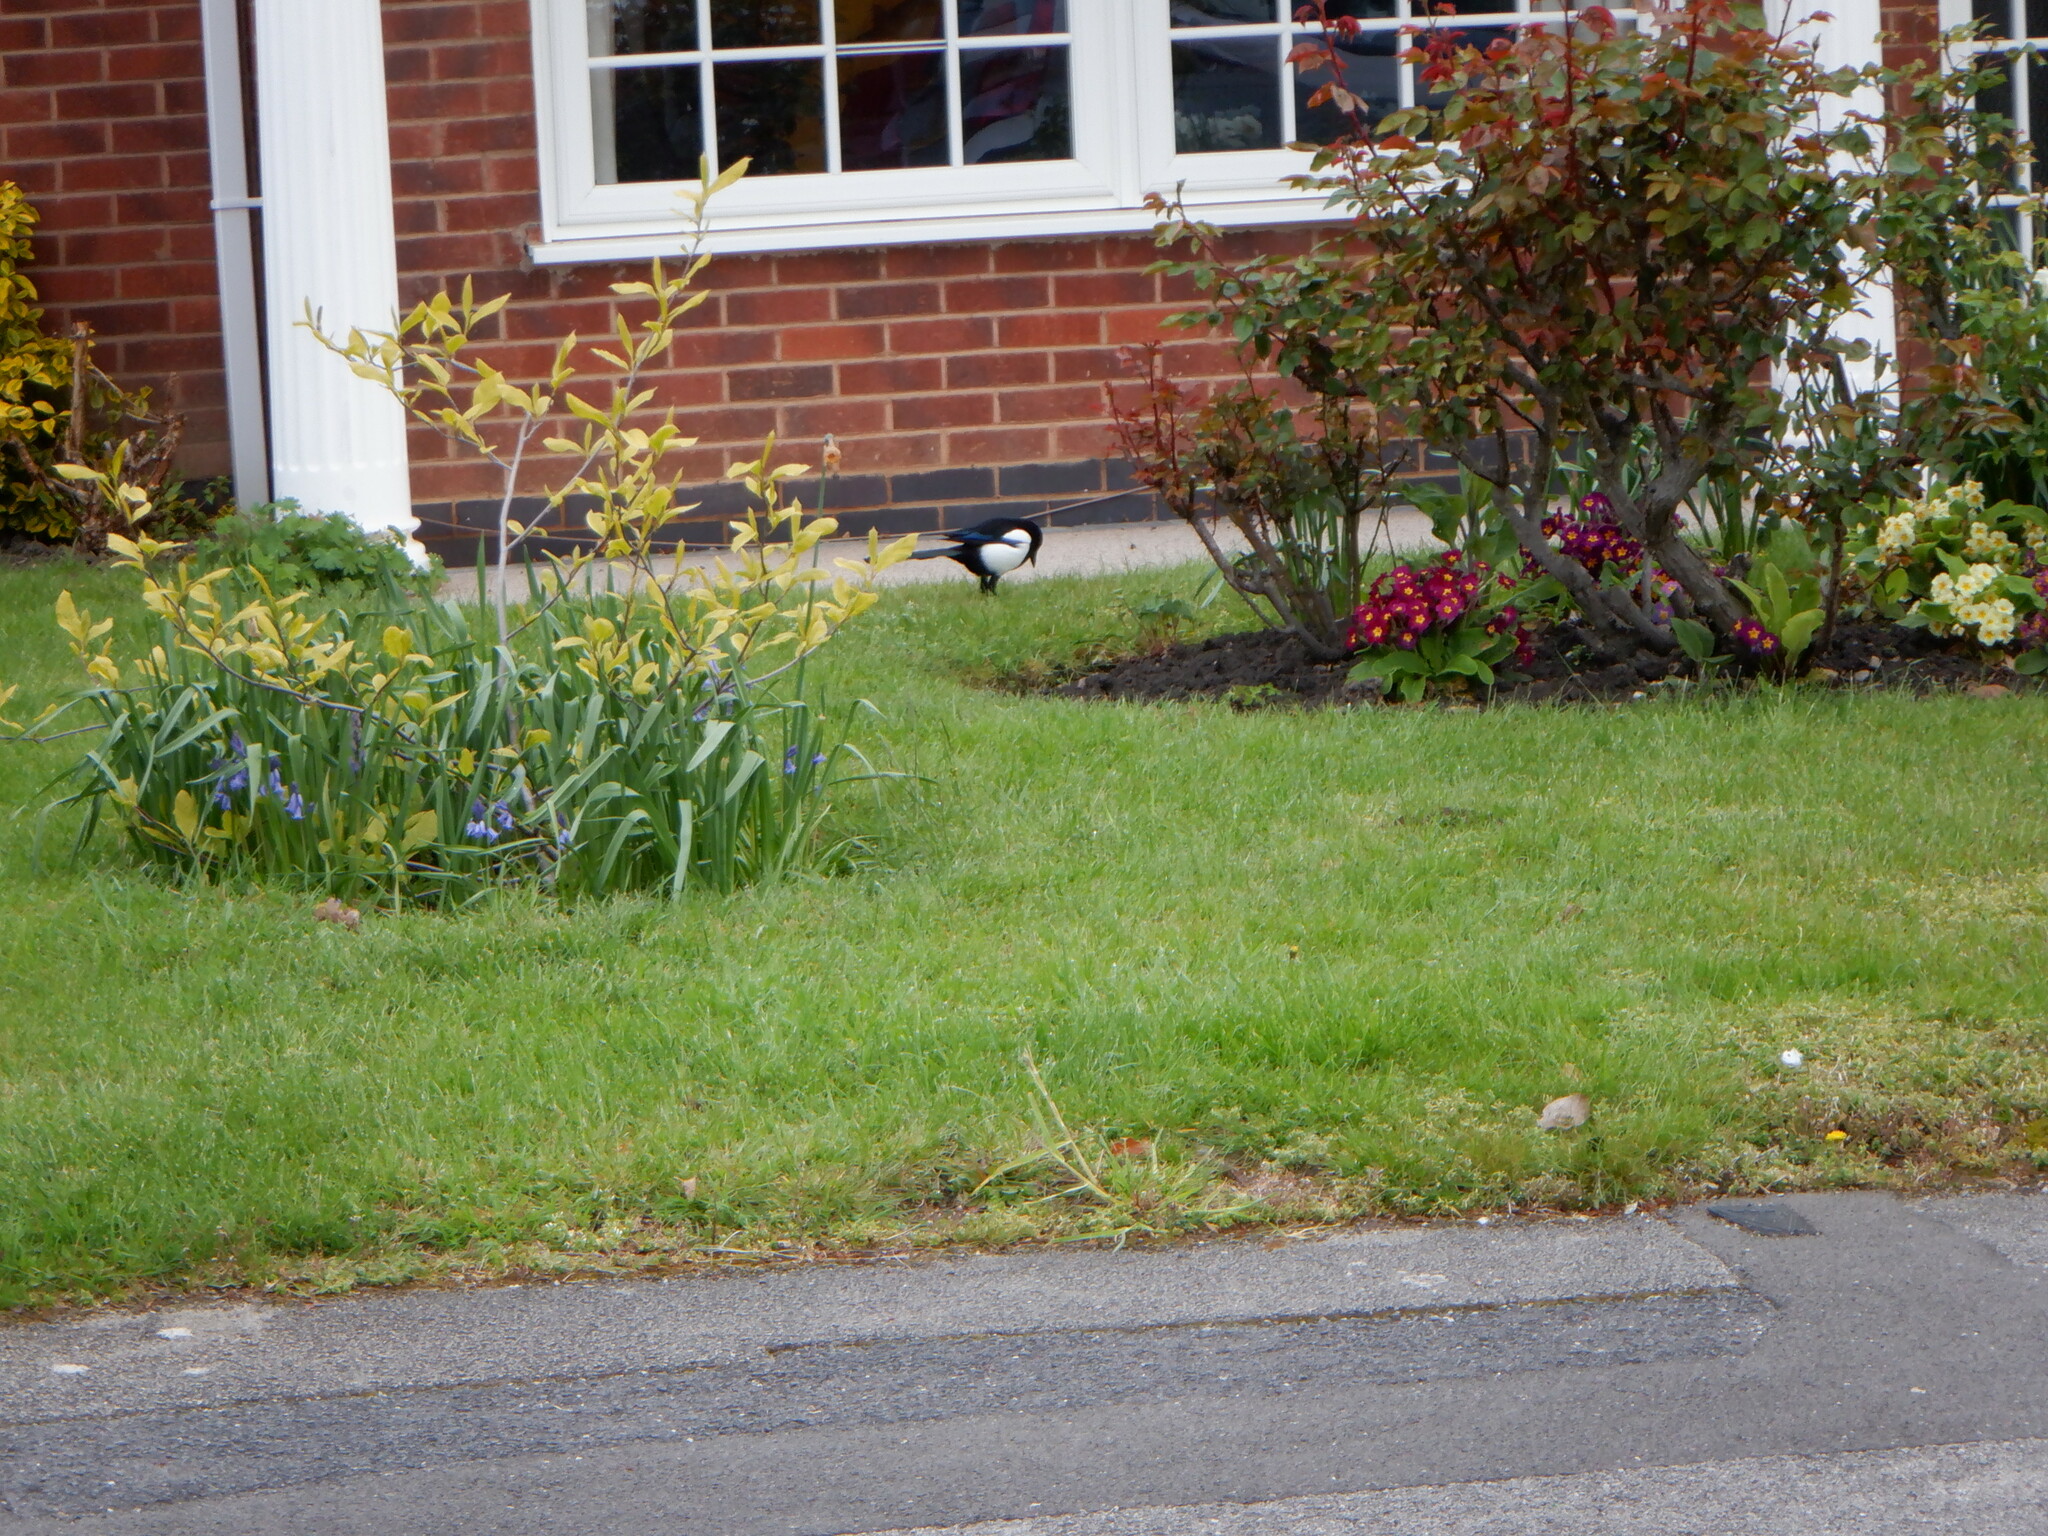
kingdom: Animalia
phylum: Chordata
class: Aves
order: Passeriformes
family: Corvidae
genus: Pica
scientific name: Pica pica
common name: Eurasian magpie
